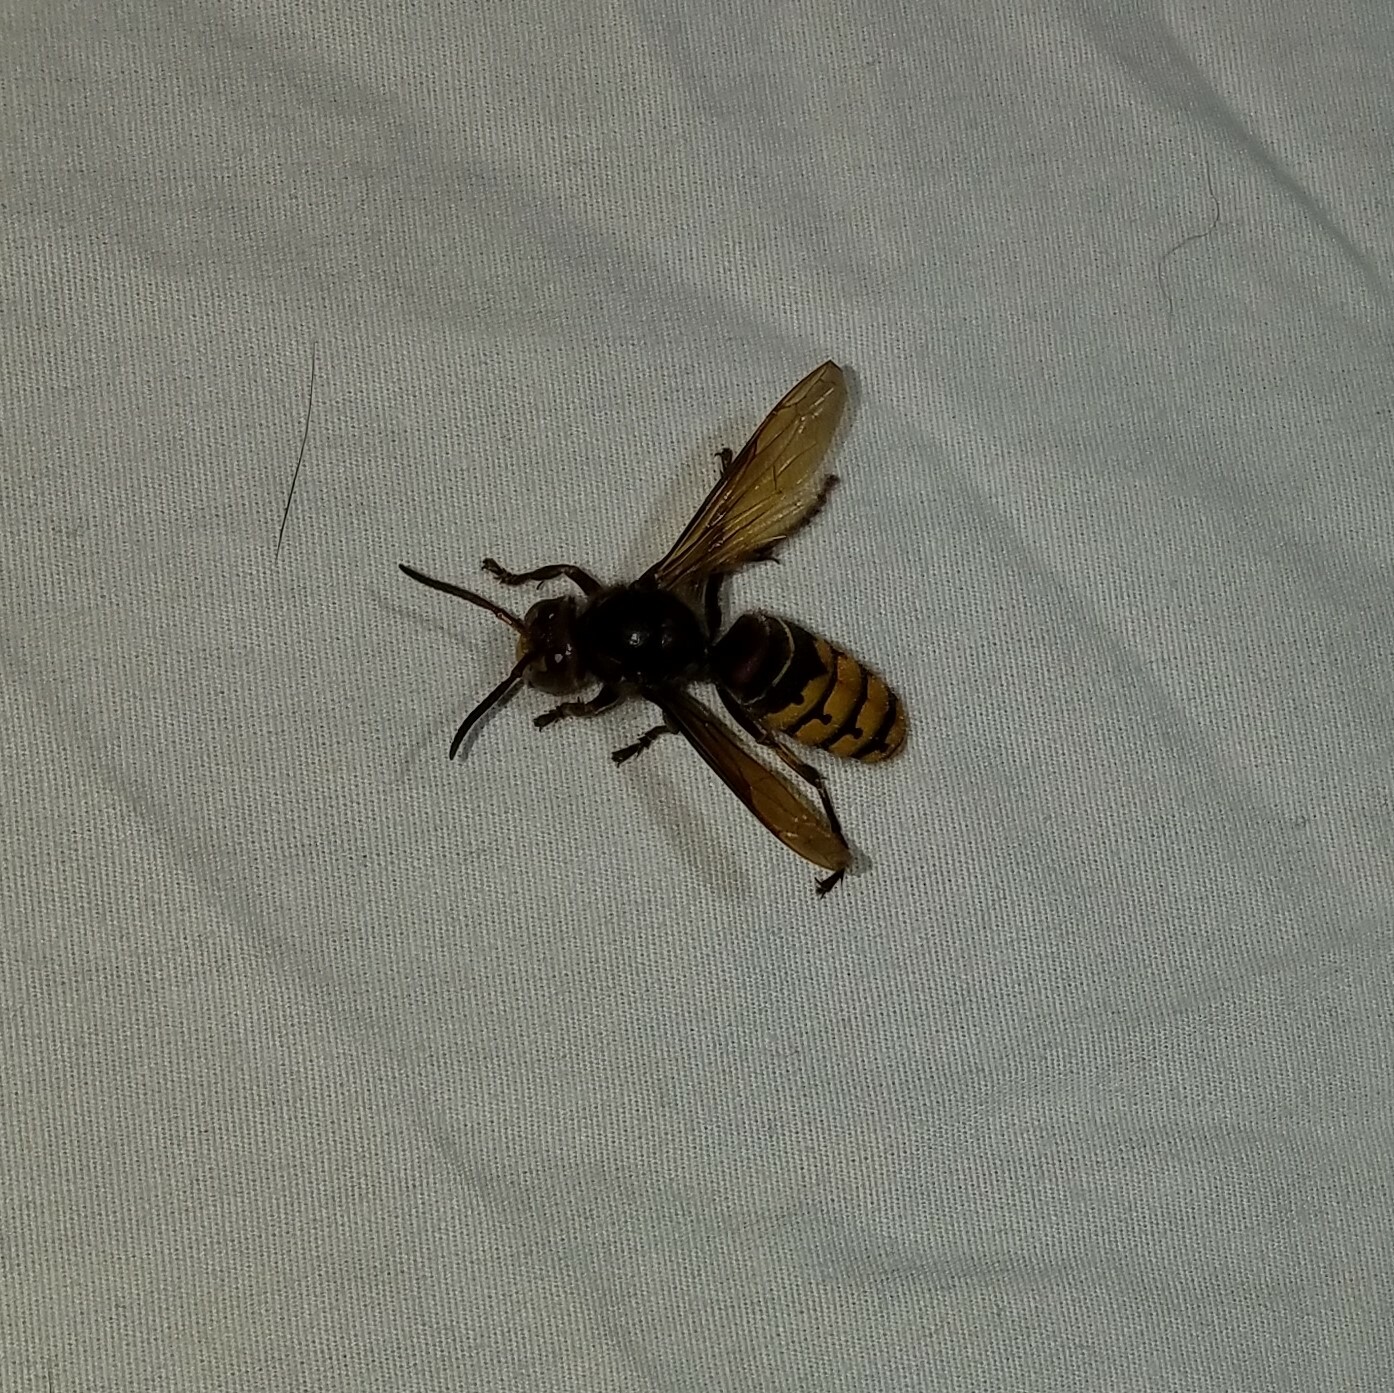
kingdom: Animalia
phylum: Arthropoda
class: Insecta
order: Hymenoptera
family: Vespidae
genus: Vespa
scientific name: Vespa crabro
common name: Hornet
